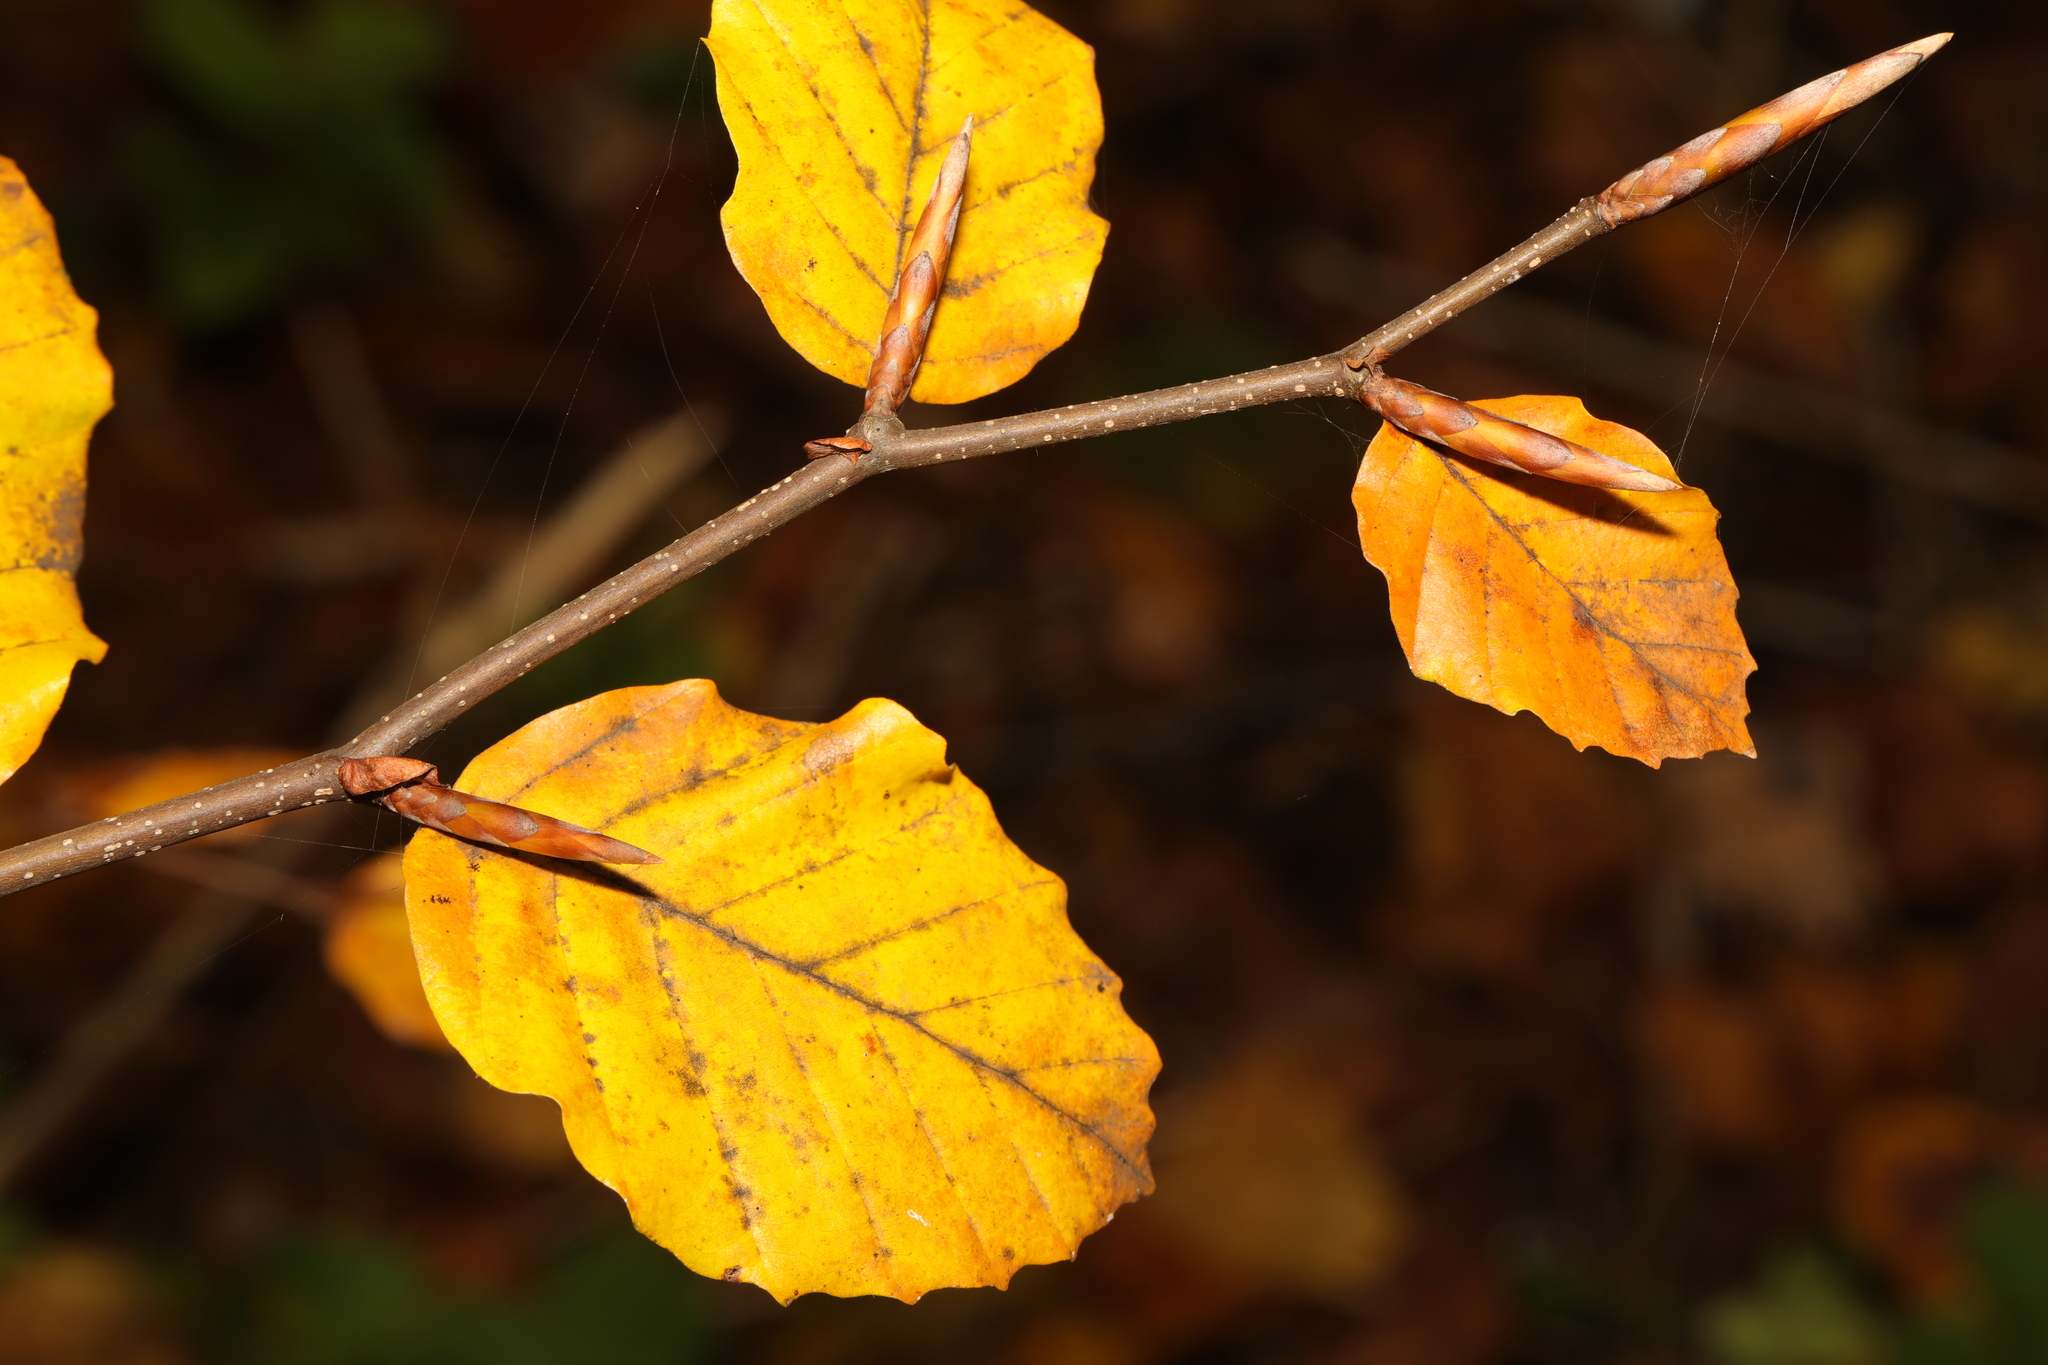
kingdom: Plantae
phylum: Tracheophyta
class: Magnoliopsida
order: Fagales
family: Fagaceae
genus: Fagus
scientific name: Fagus sylvatica
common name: Beech
